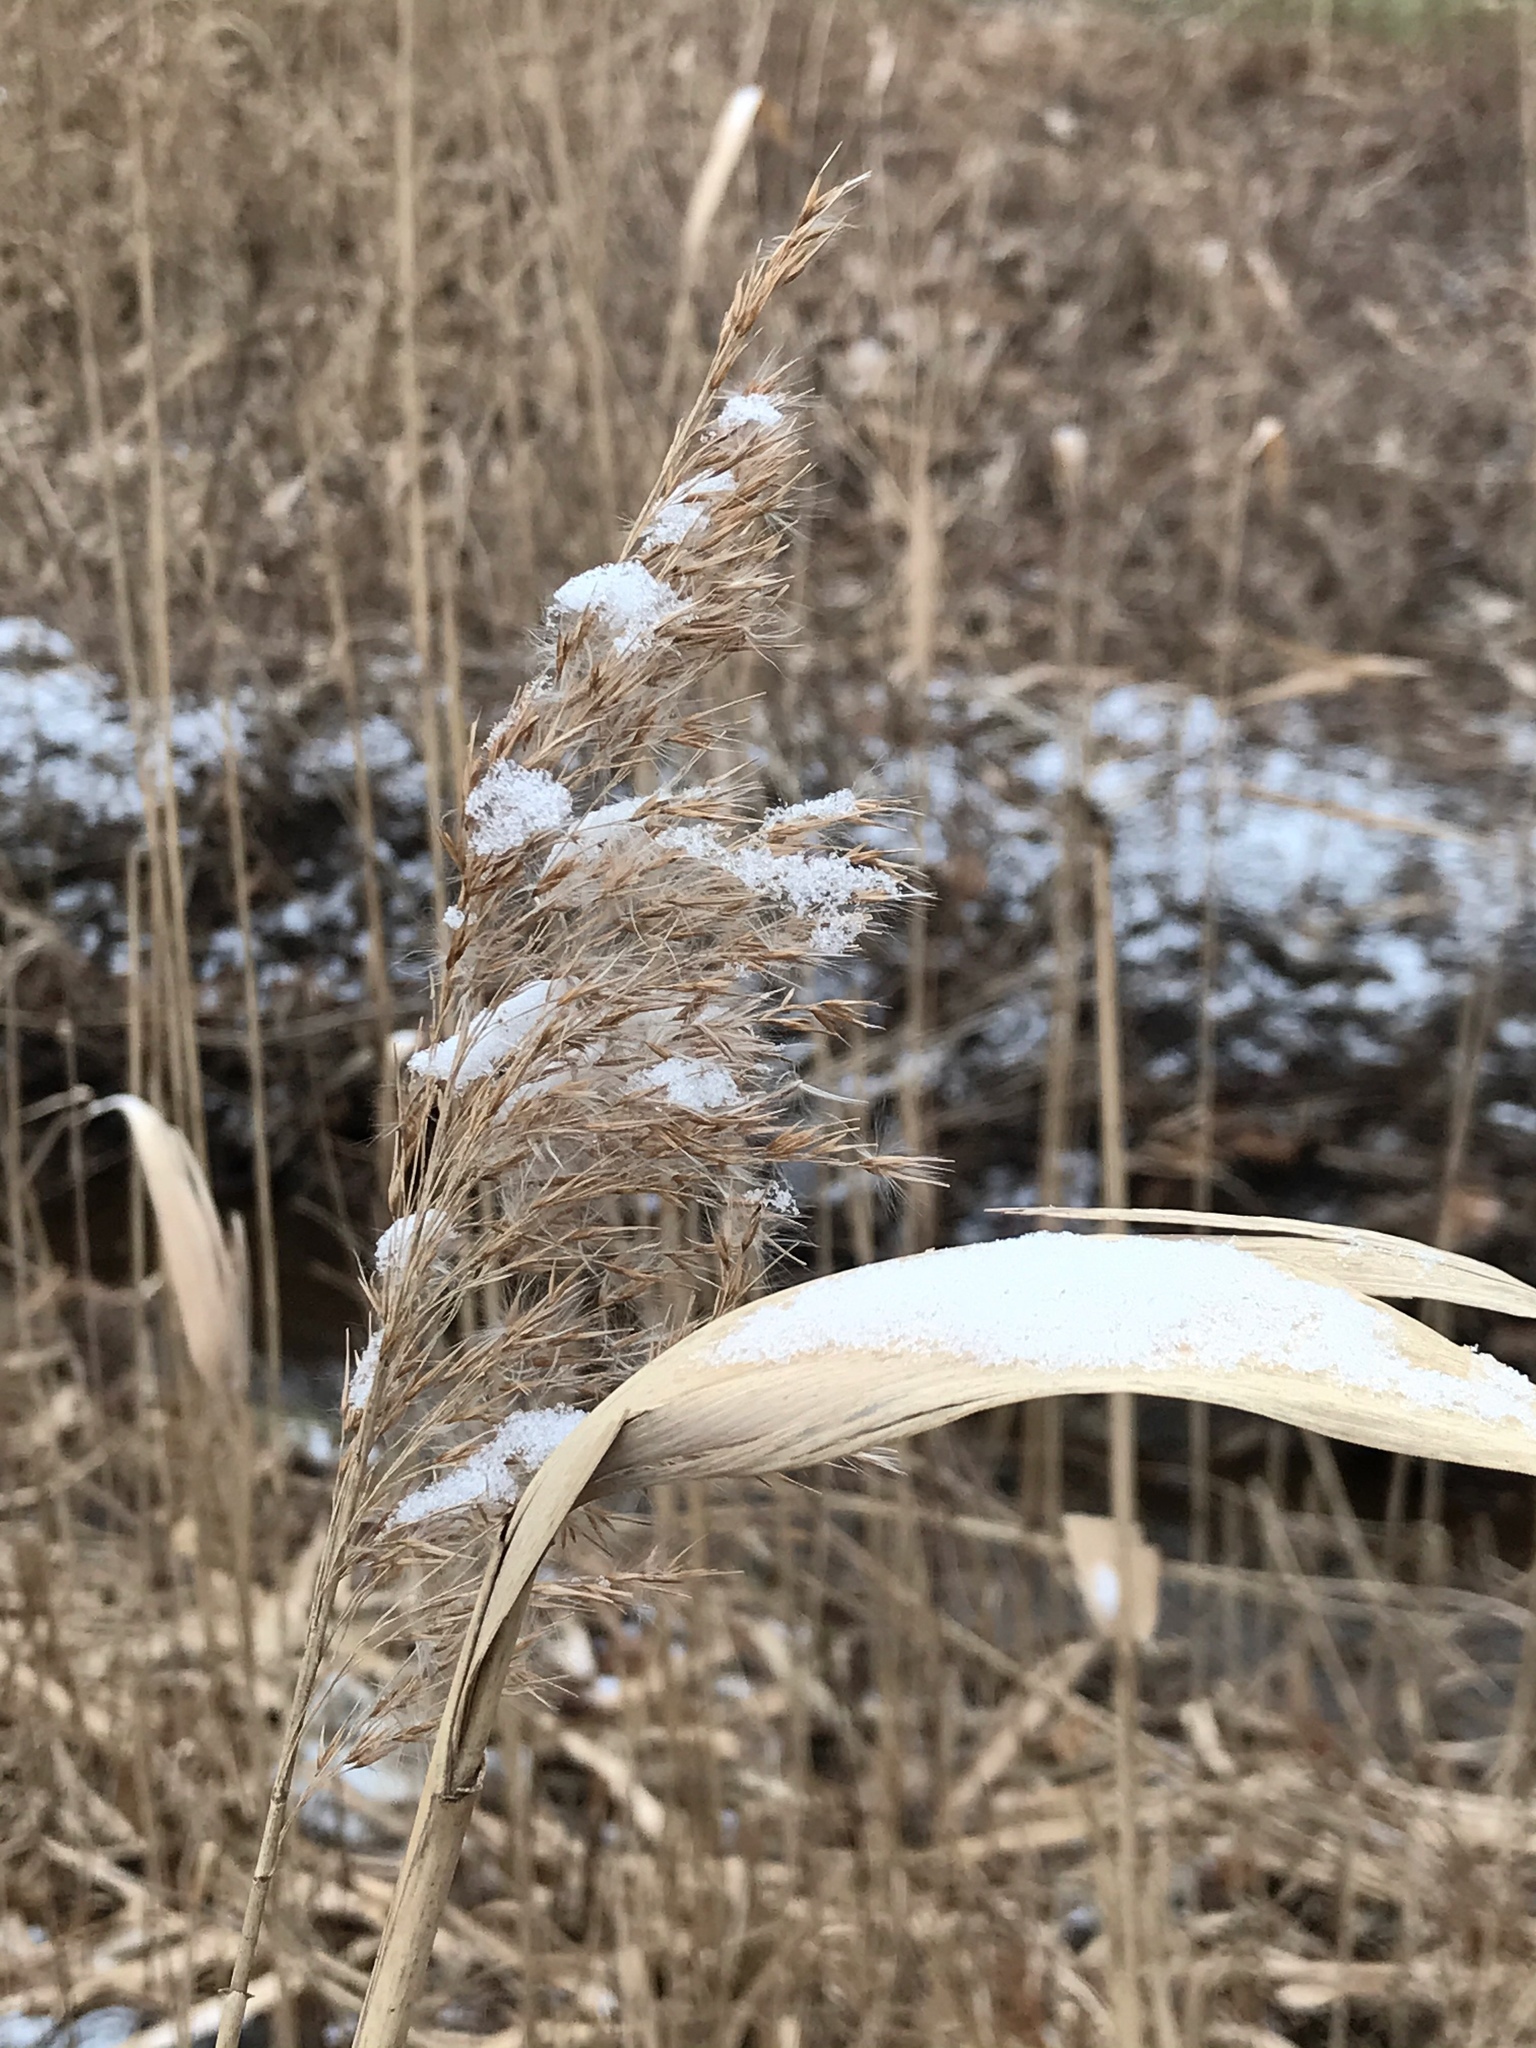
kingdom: Plantae
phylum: Tracheophyta
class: Liliopsida
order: Poales
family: Poaceae
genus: Phragmites
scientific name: Phragmites australis
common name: Common reed
